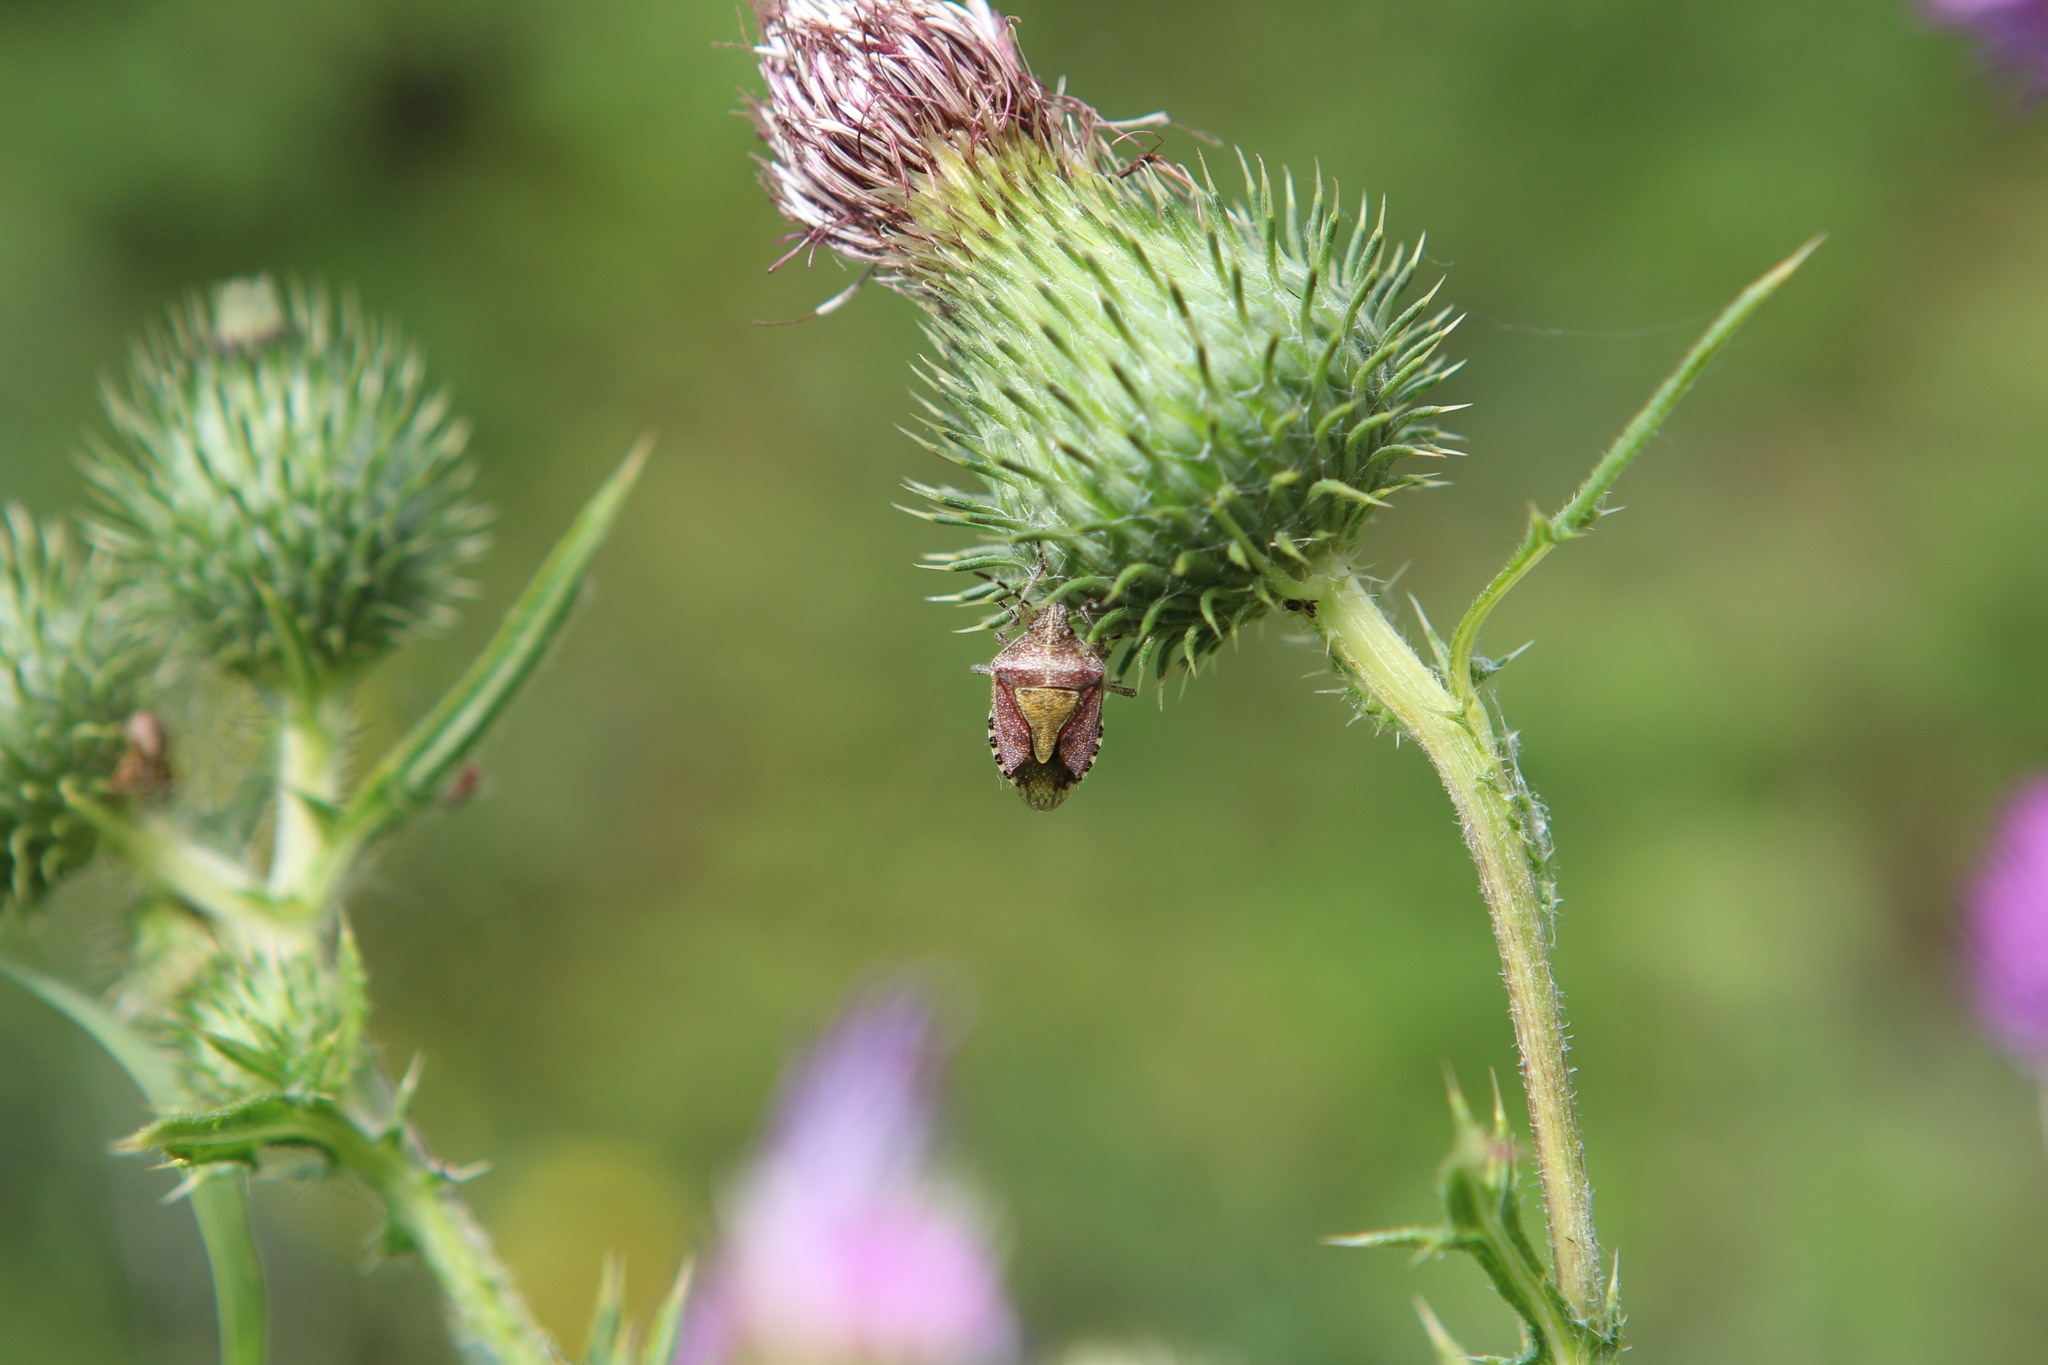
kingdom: Animalia
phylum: Arthropoda
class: Insecta
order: Hemiptera
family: Pentatomidae
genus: Dolycoris
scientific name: Dolycoris baccarum
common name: Sloe bug
